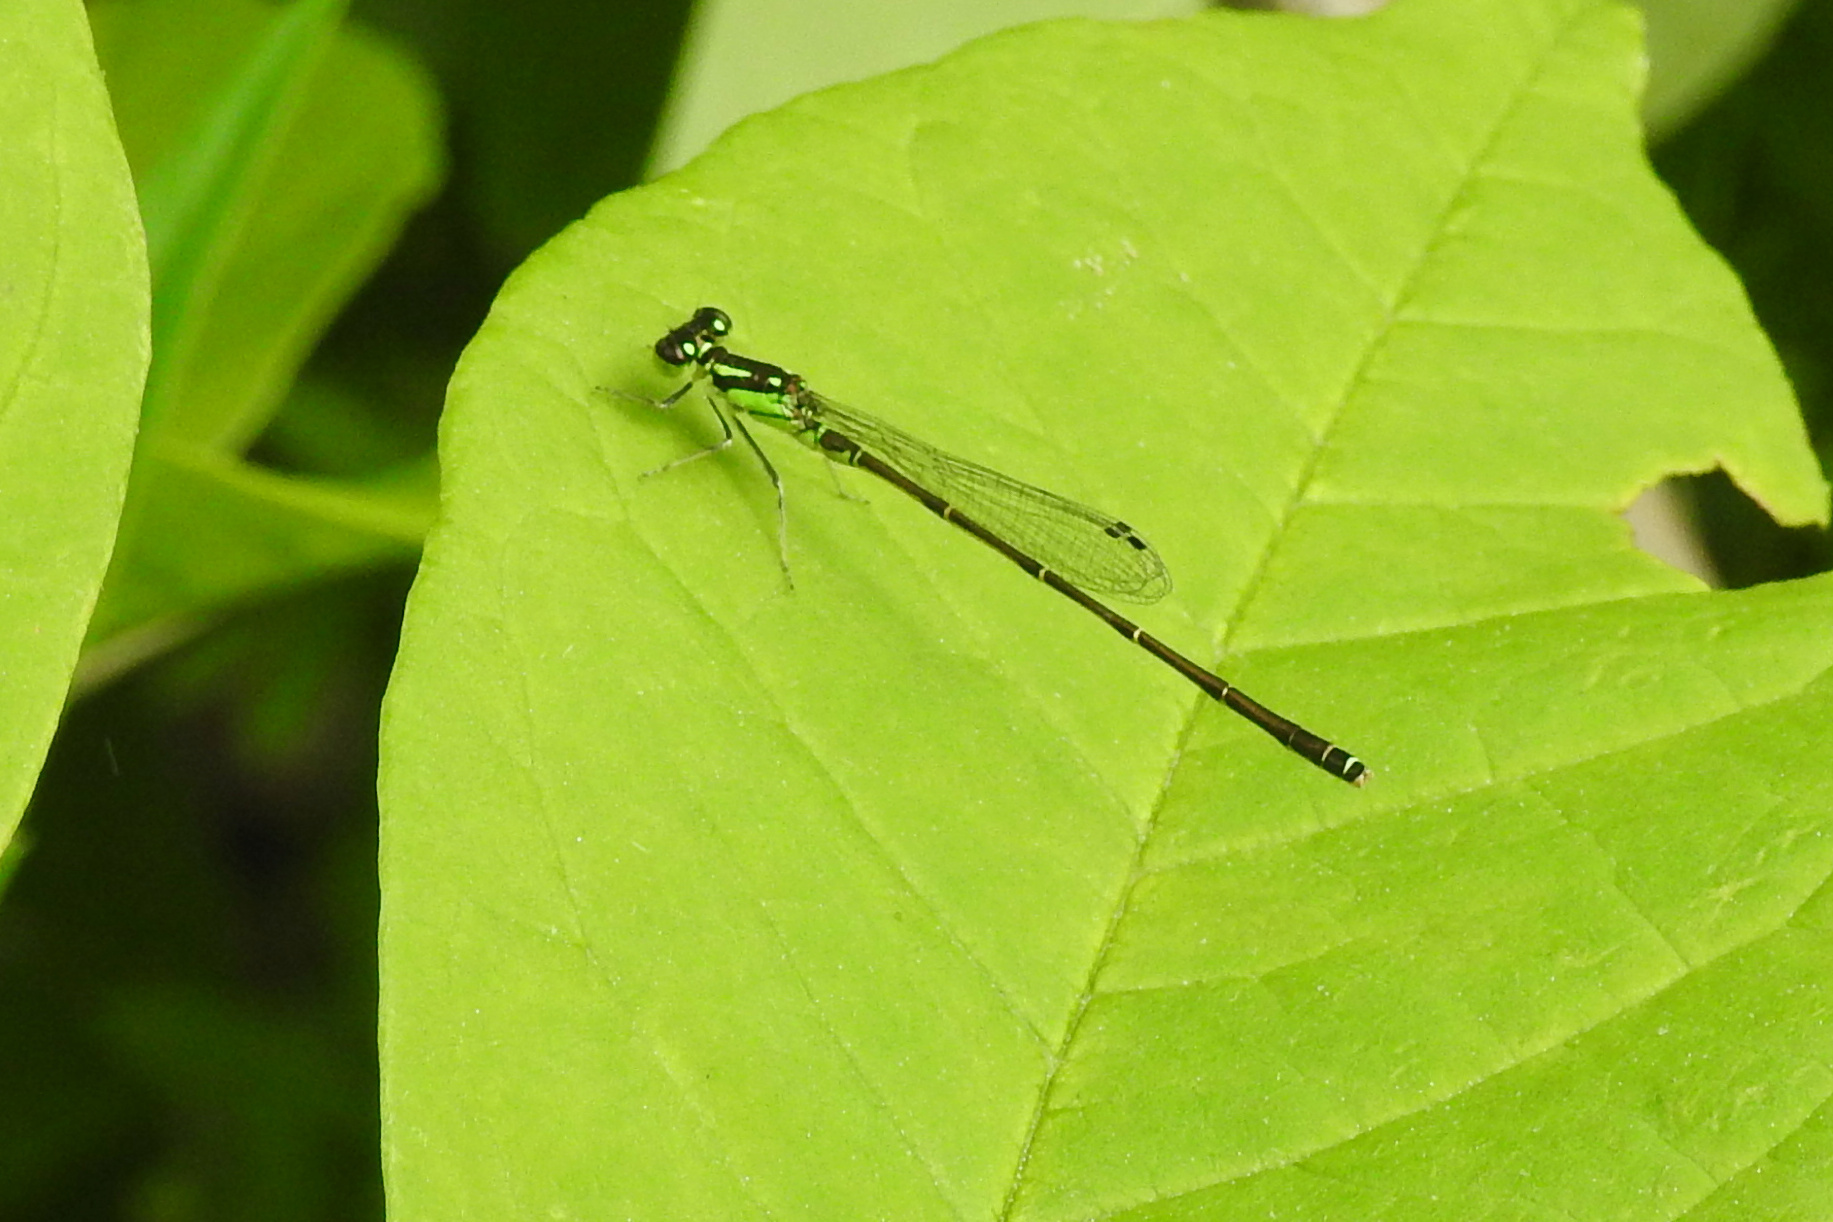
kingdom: Animalia
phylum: Arthropoda
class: Insecta
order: Odonata
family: Coenagrionidae
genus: Ischnura
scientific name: Ischnura posita
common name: Fragile forktail
